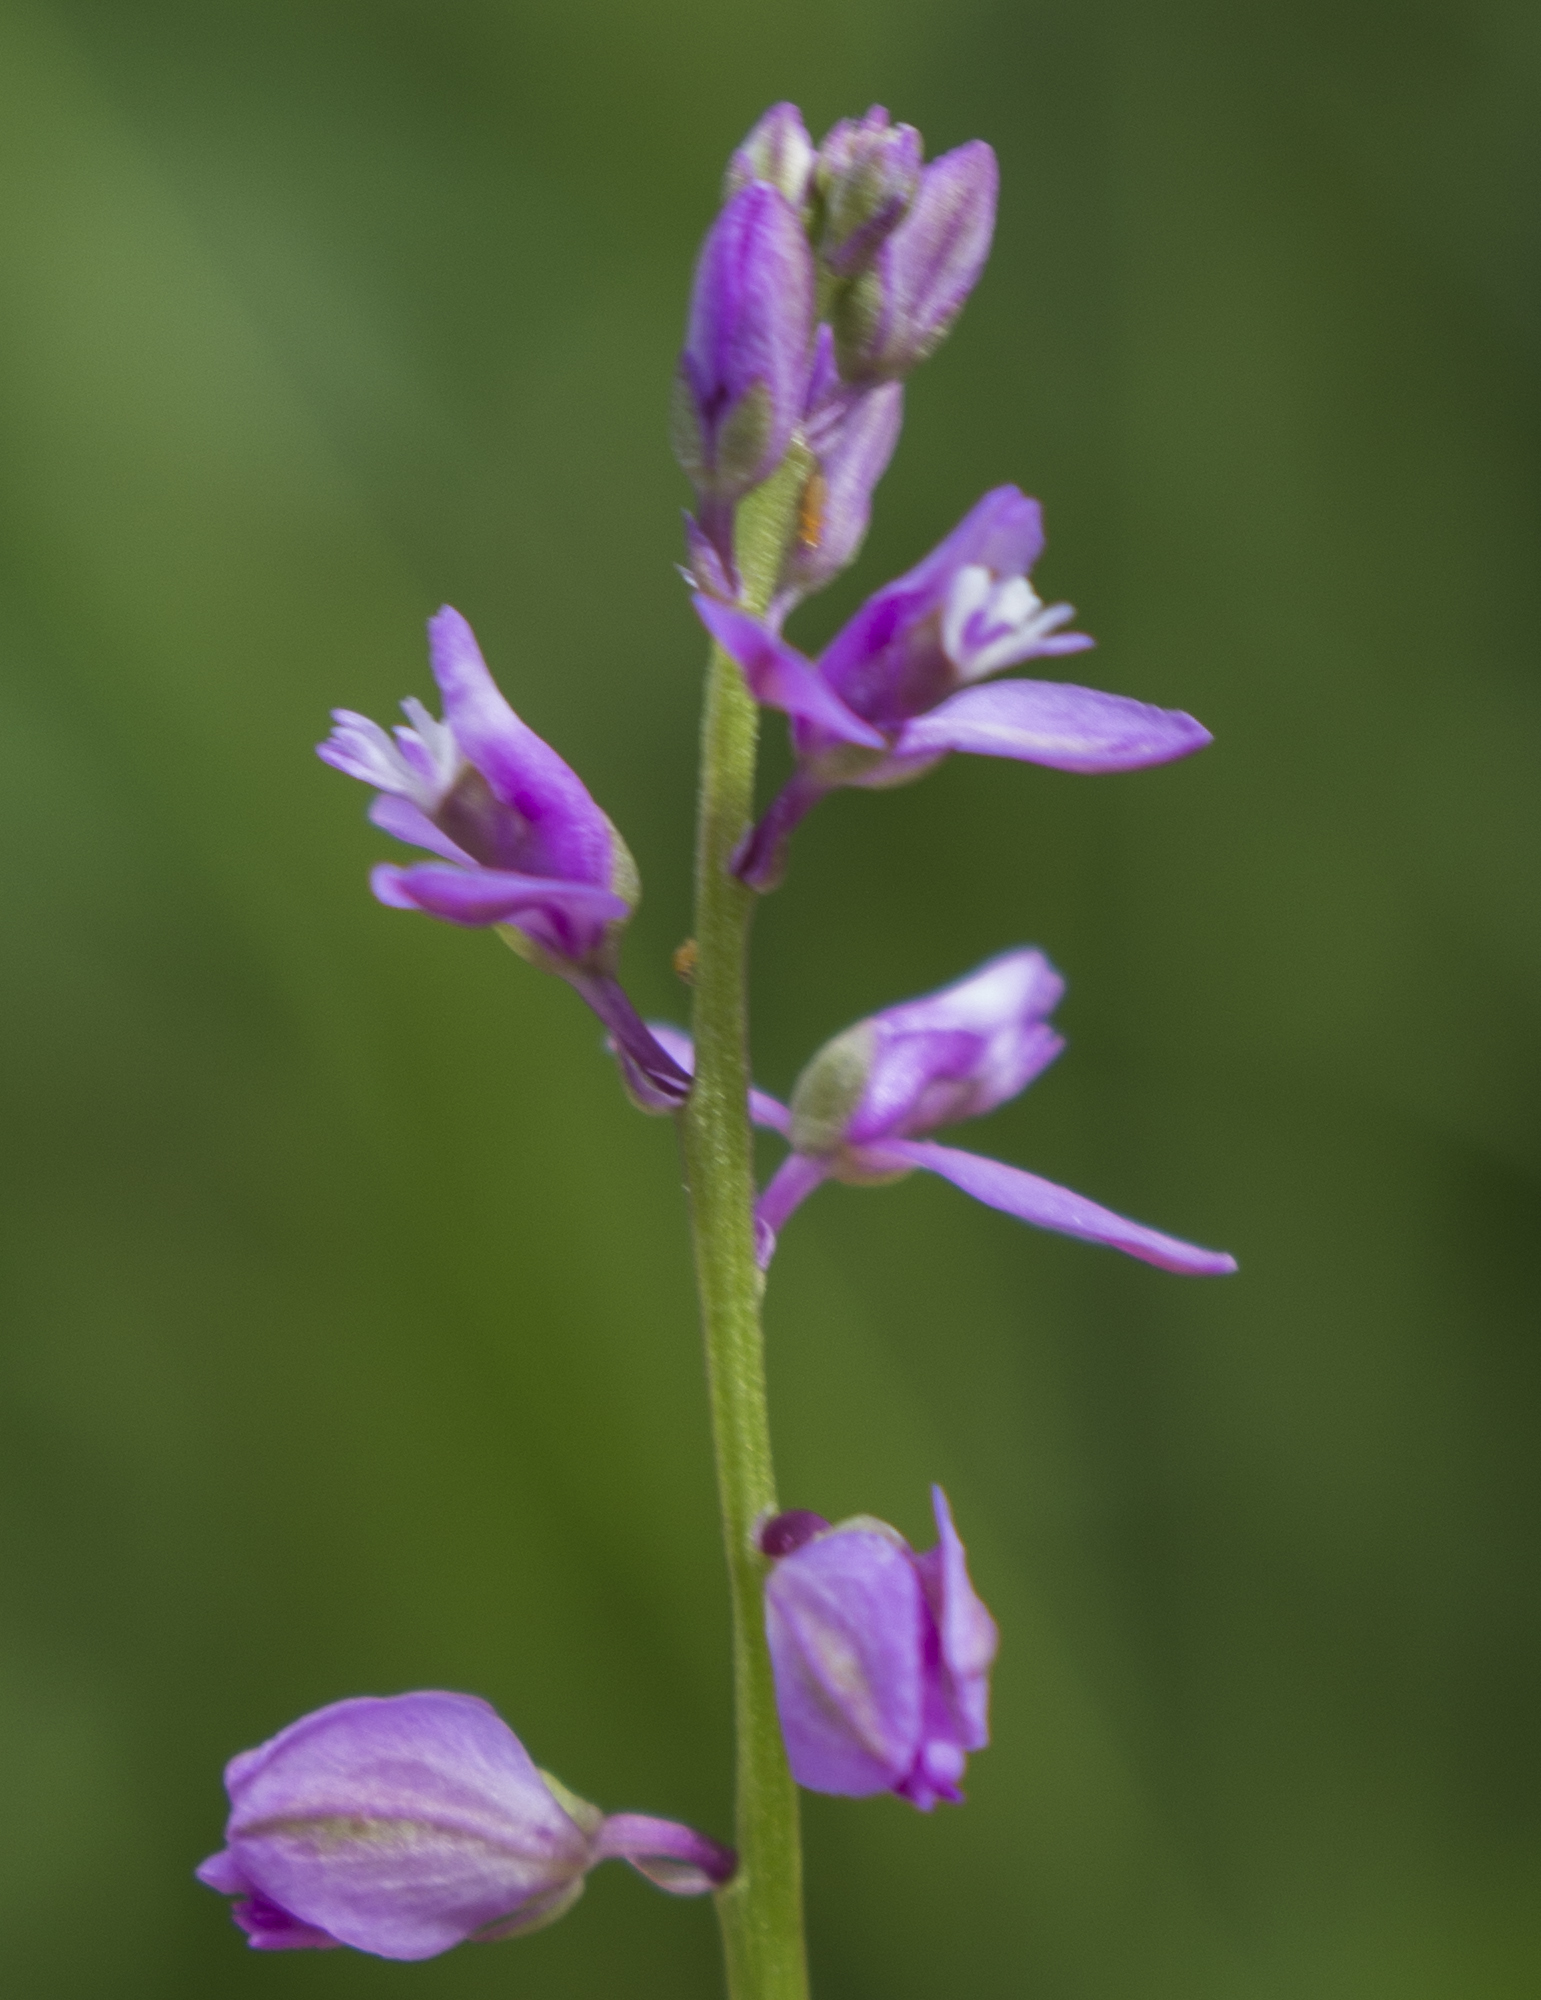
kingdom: Plantae
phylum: Tracheophyta
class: Magnoliopsida
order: Fabales
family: Polygalaceae
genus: Polygala
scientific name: Polygala polygama
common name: Bitter milkwort
